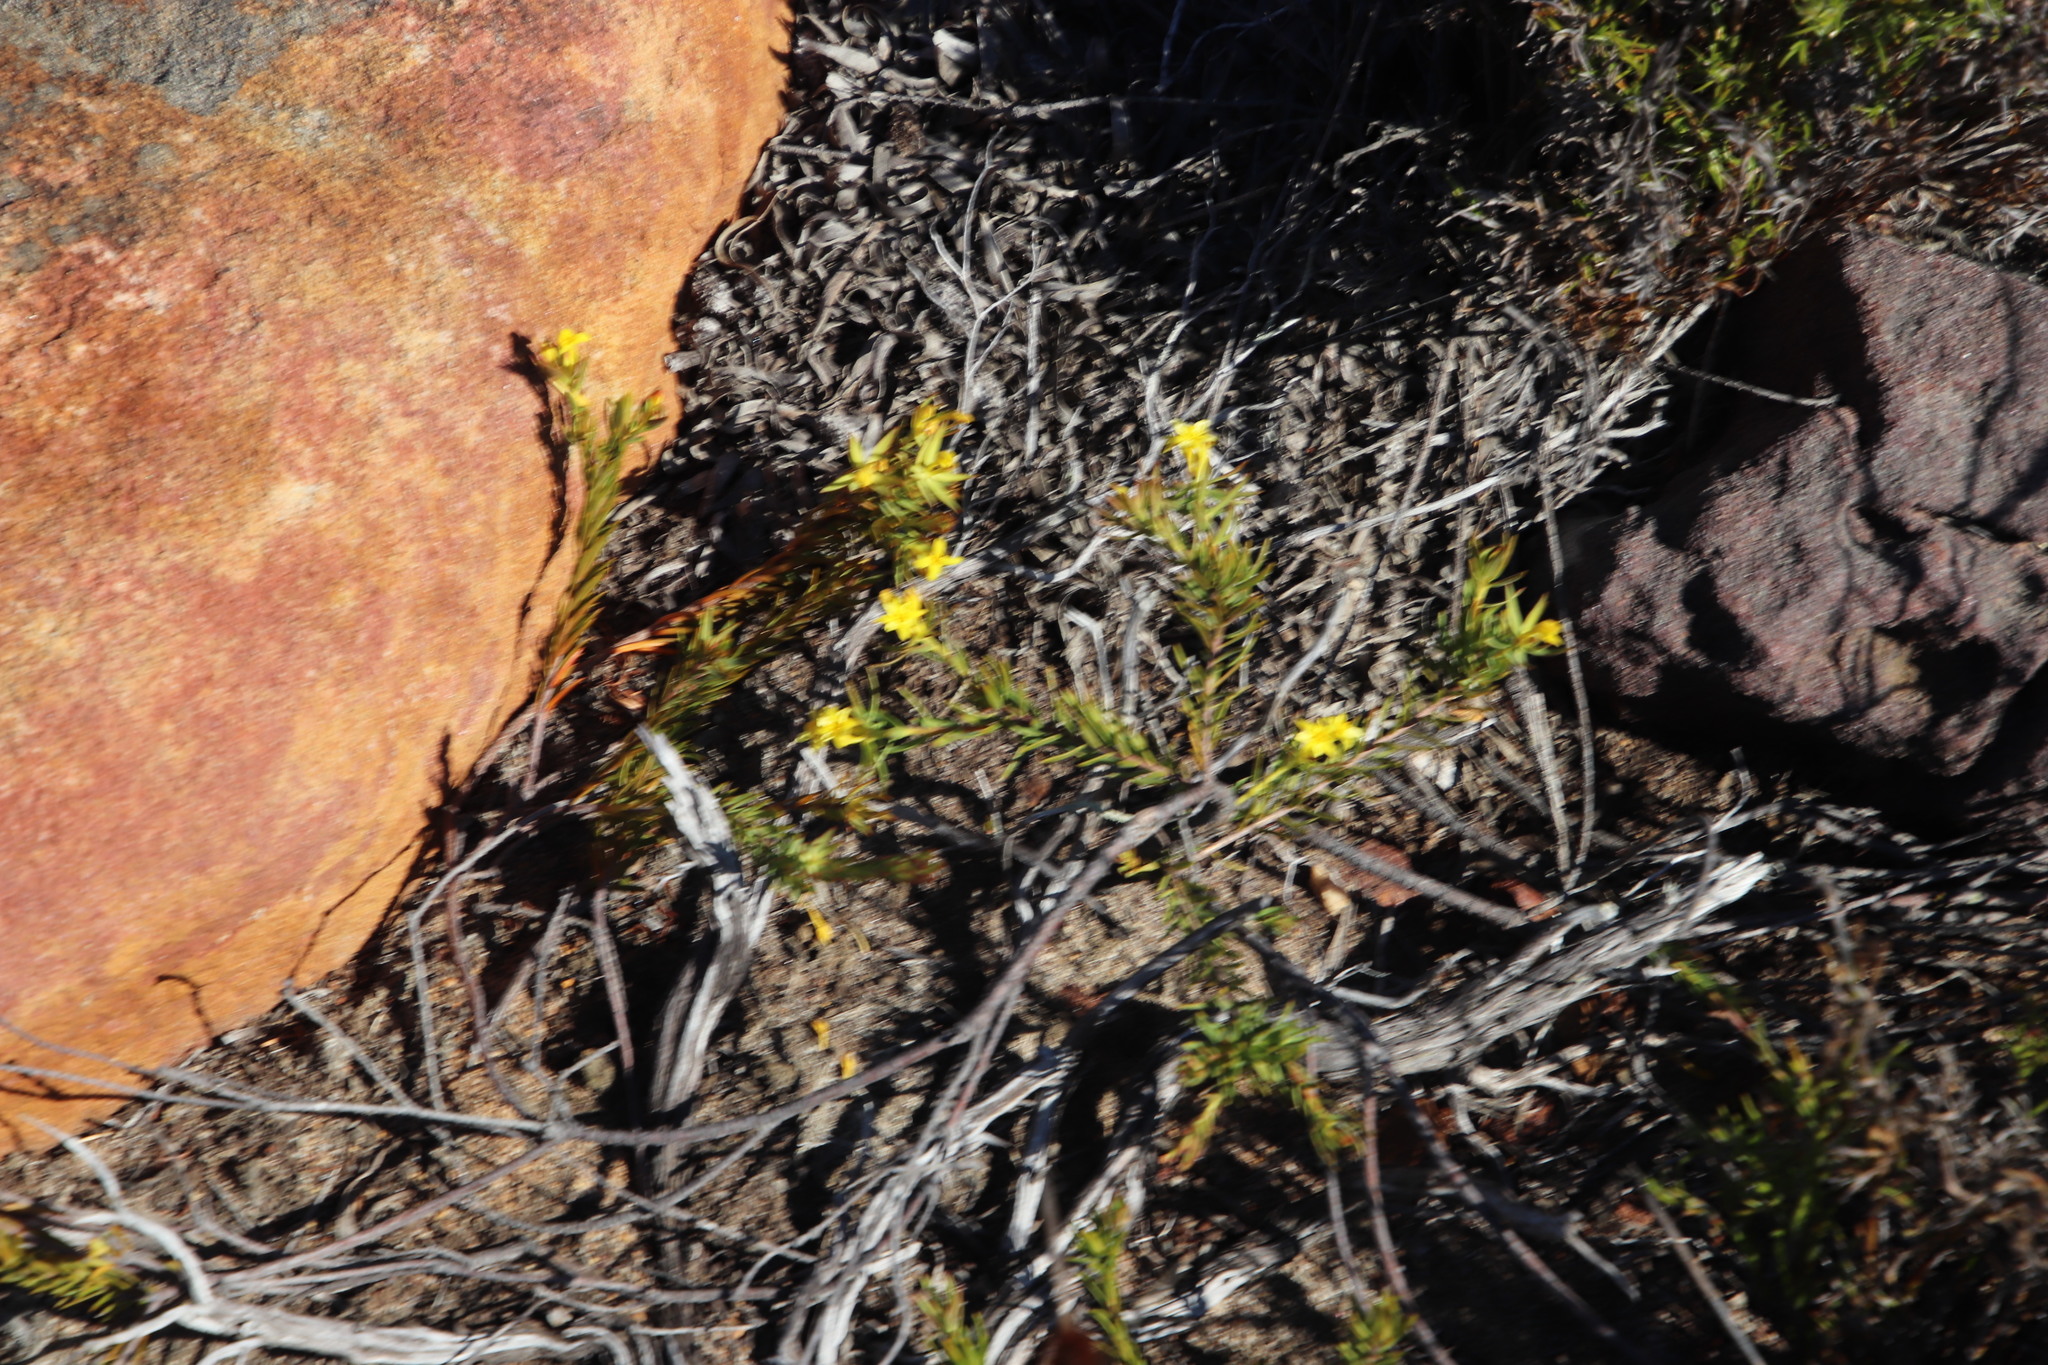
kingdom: Plantae
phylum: Tracheophyta
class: Magnoliopsida
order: Malvales
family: Thymelaeaceae
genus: Gnidia
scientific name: Gnidia juniperifolia
